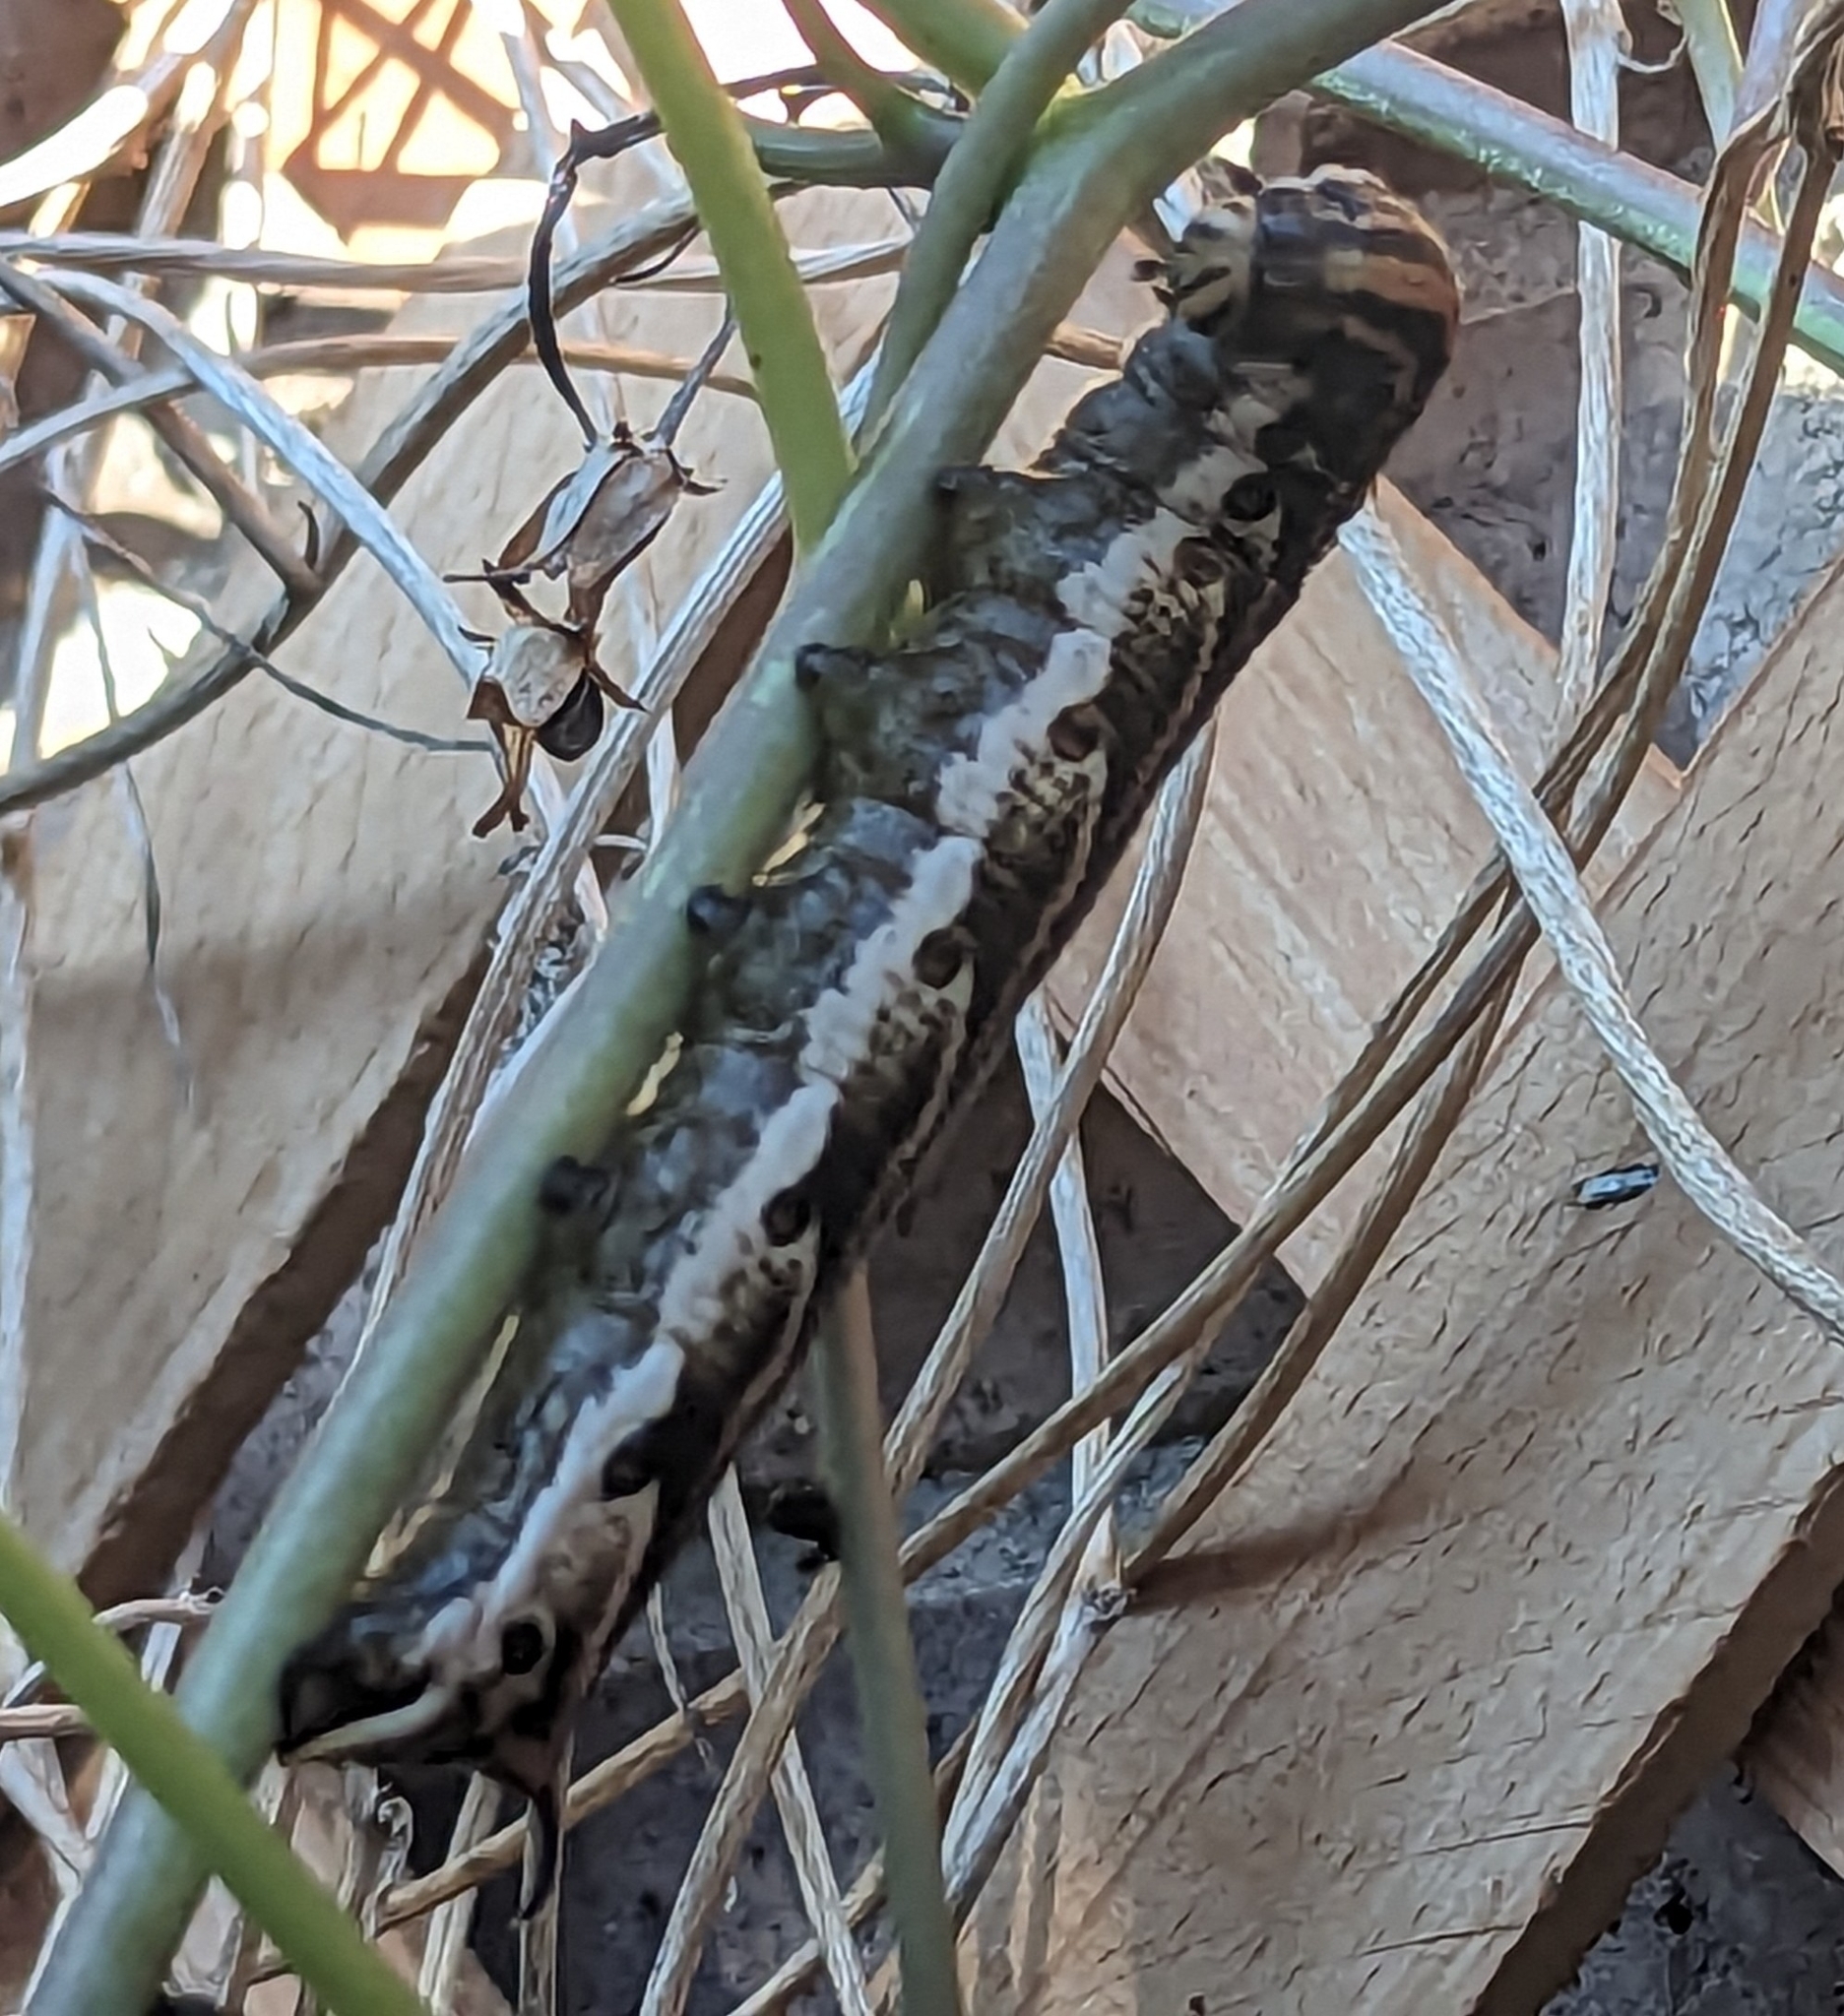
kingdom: Animalia
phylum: Arthropoda
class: Insecta
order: Lepidoptera
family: Sphingidae
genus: Agrius
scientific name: Agrius cingulata
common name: Pink-spotted hawkmoth
